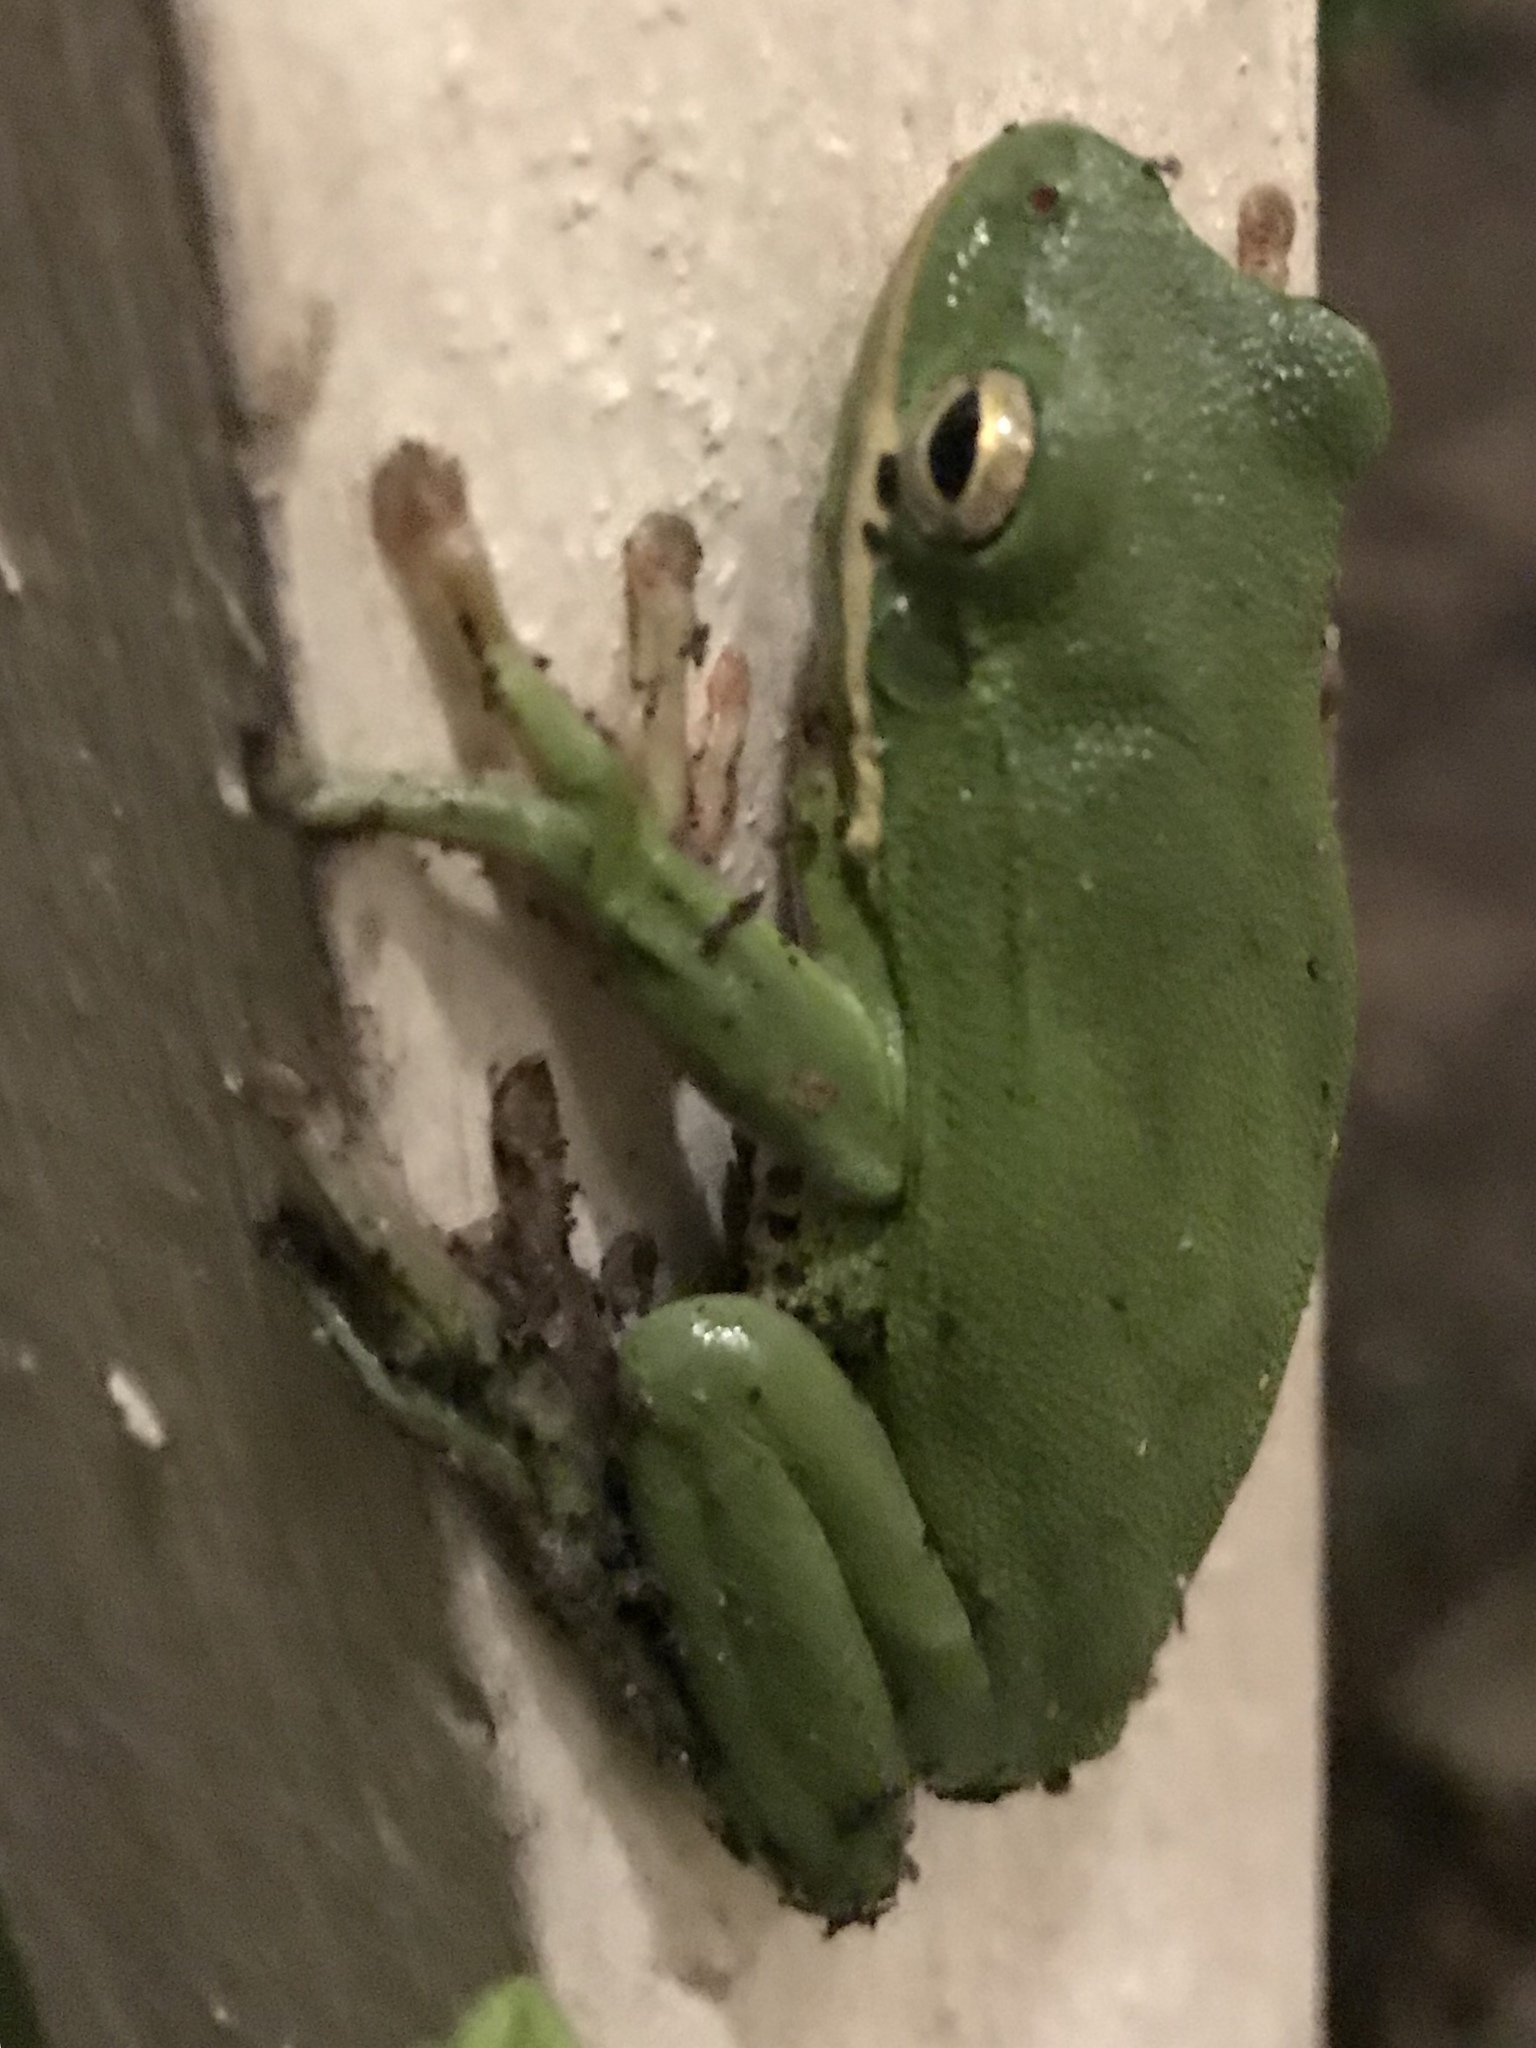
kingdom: Animalia
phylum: Chordata
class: Amphibia
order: Anura
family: Hylidae
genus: Dryophytes
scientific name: Dryophytes cinereus
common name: Green treefrog
